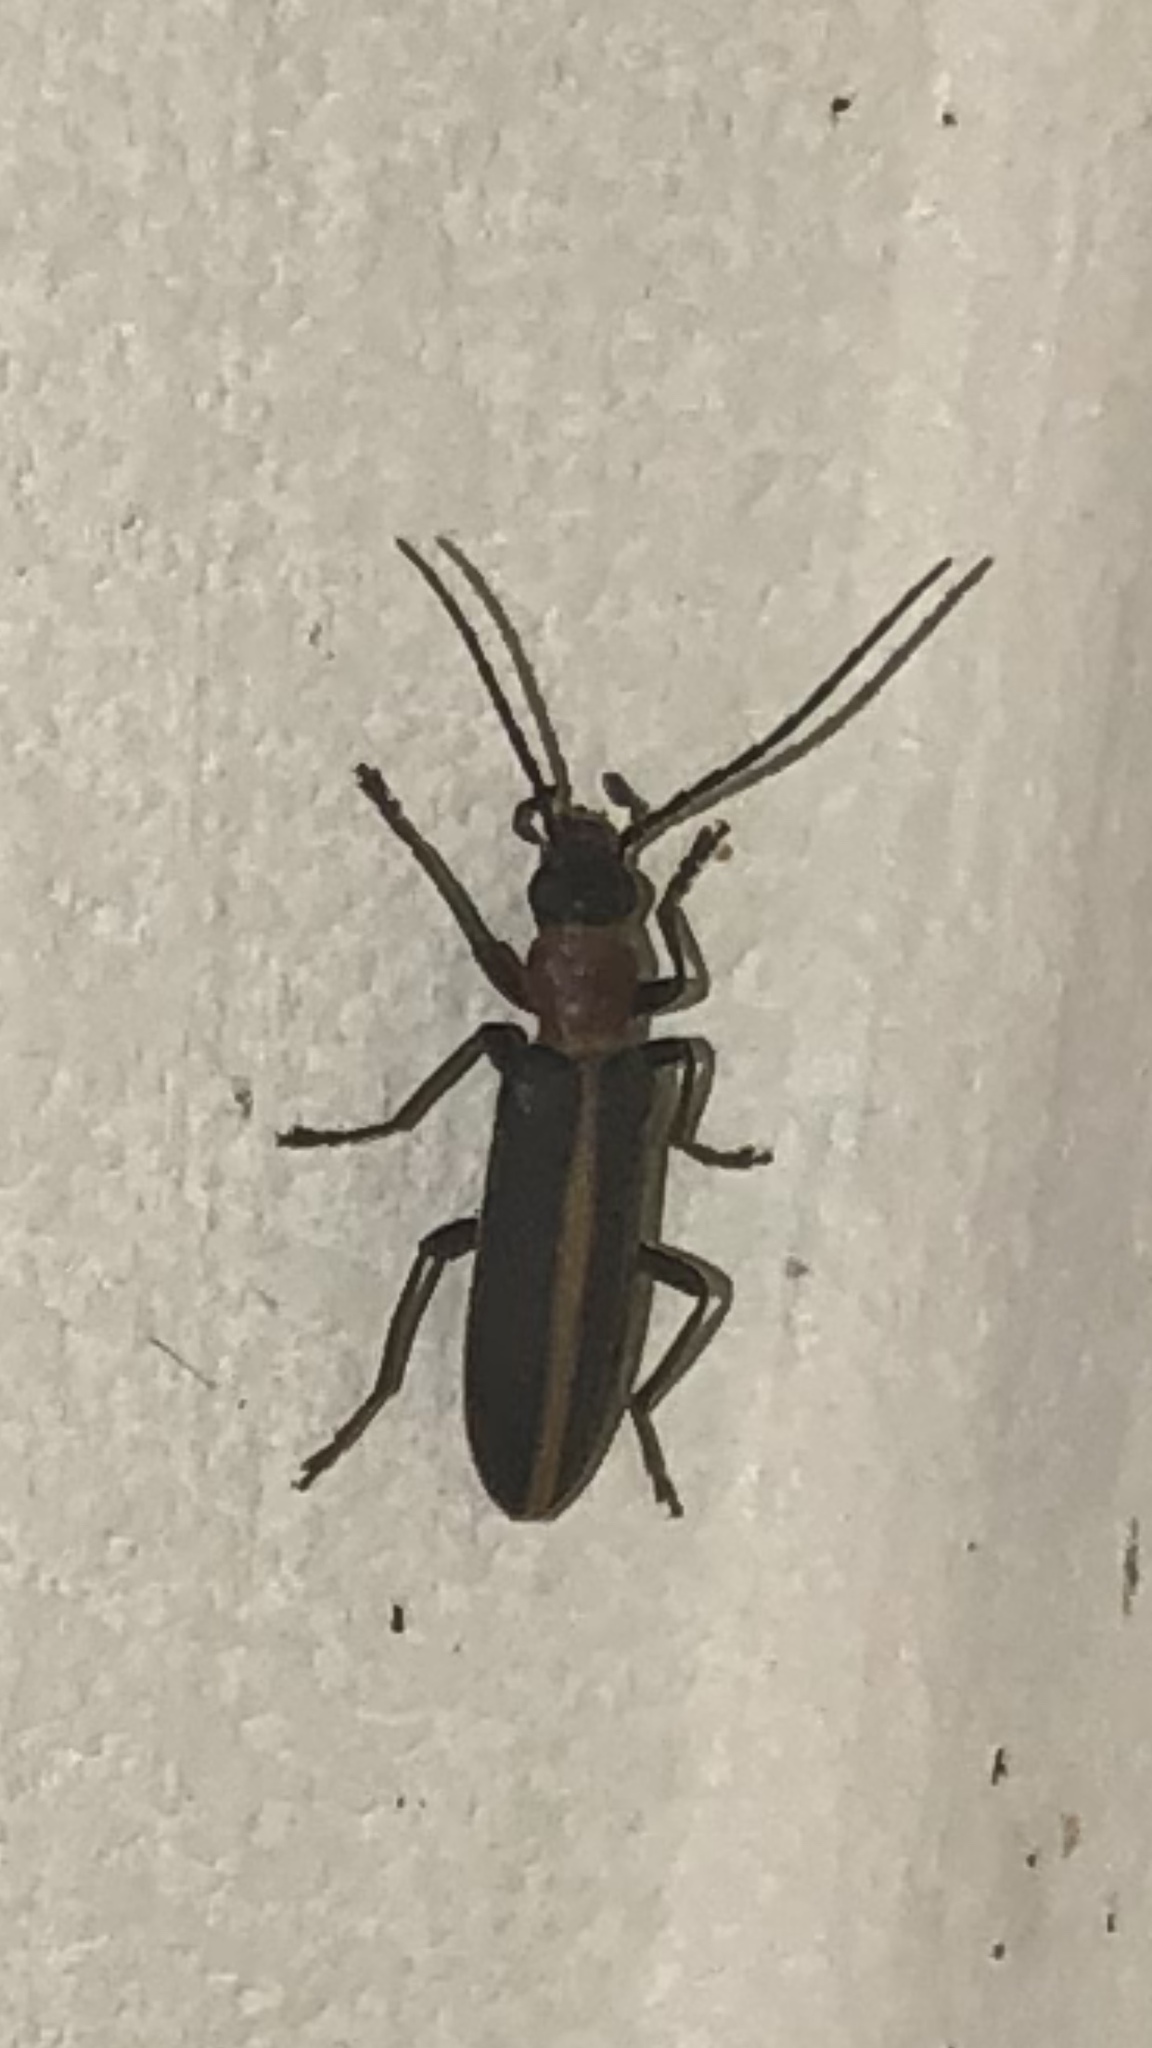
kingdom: Animalia
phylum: Arthropoda
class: Insecta
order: Coleoptera
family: Oedemeridae
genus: Oxycopis
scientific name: Oxycopis mimetica
